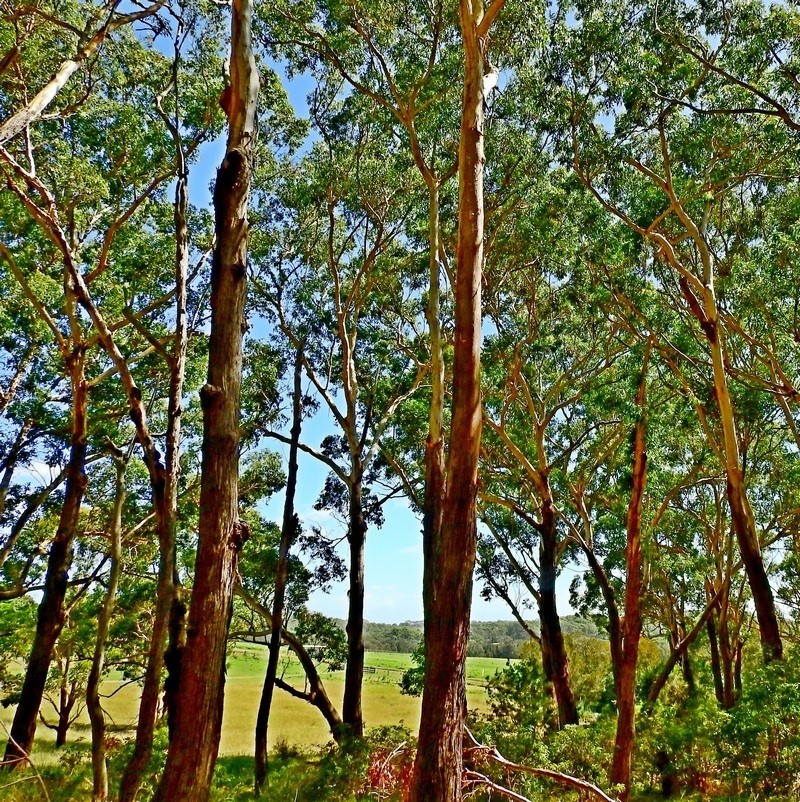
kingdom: Plantae
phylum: Tracheophyta
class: Magnoliopsida
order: Myrtales
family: Myrtaceae
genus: Eucalyptus
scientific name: Eucalyptus pilularis
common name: Blackbutt
